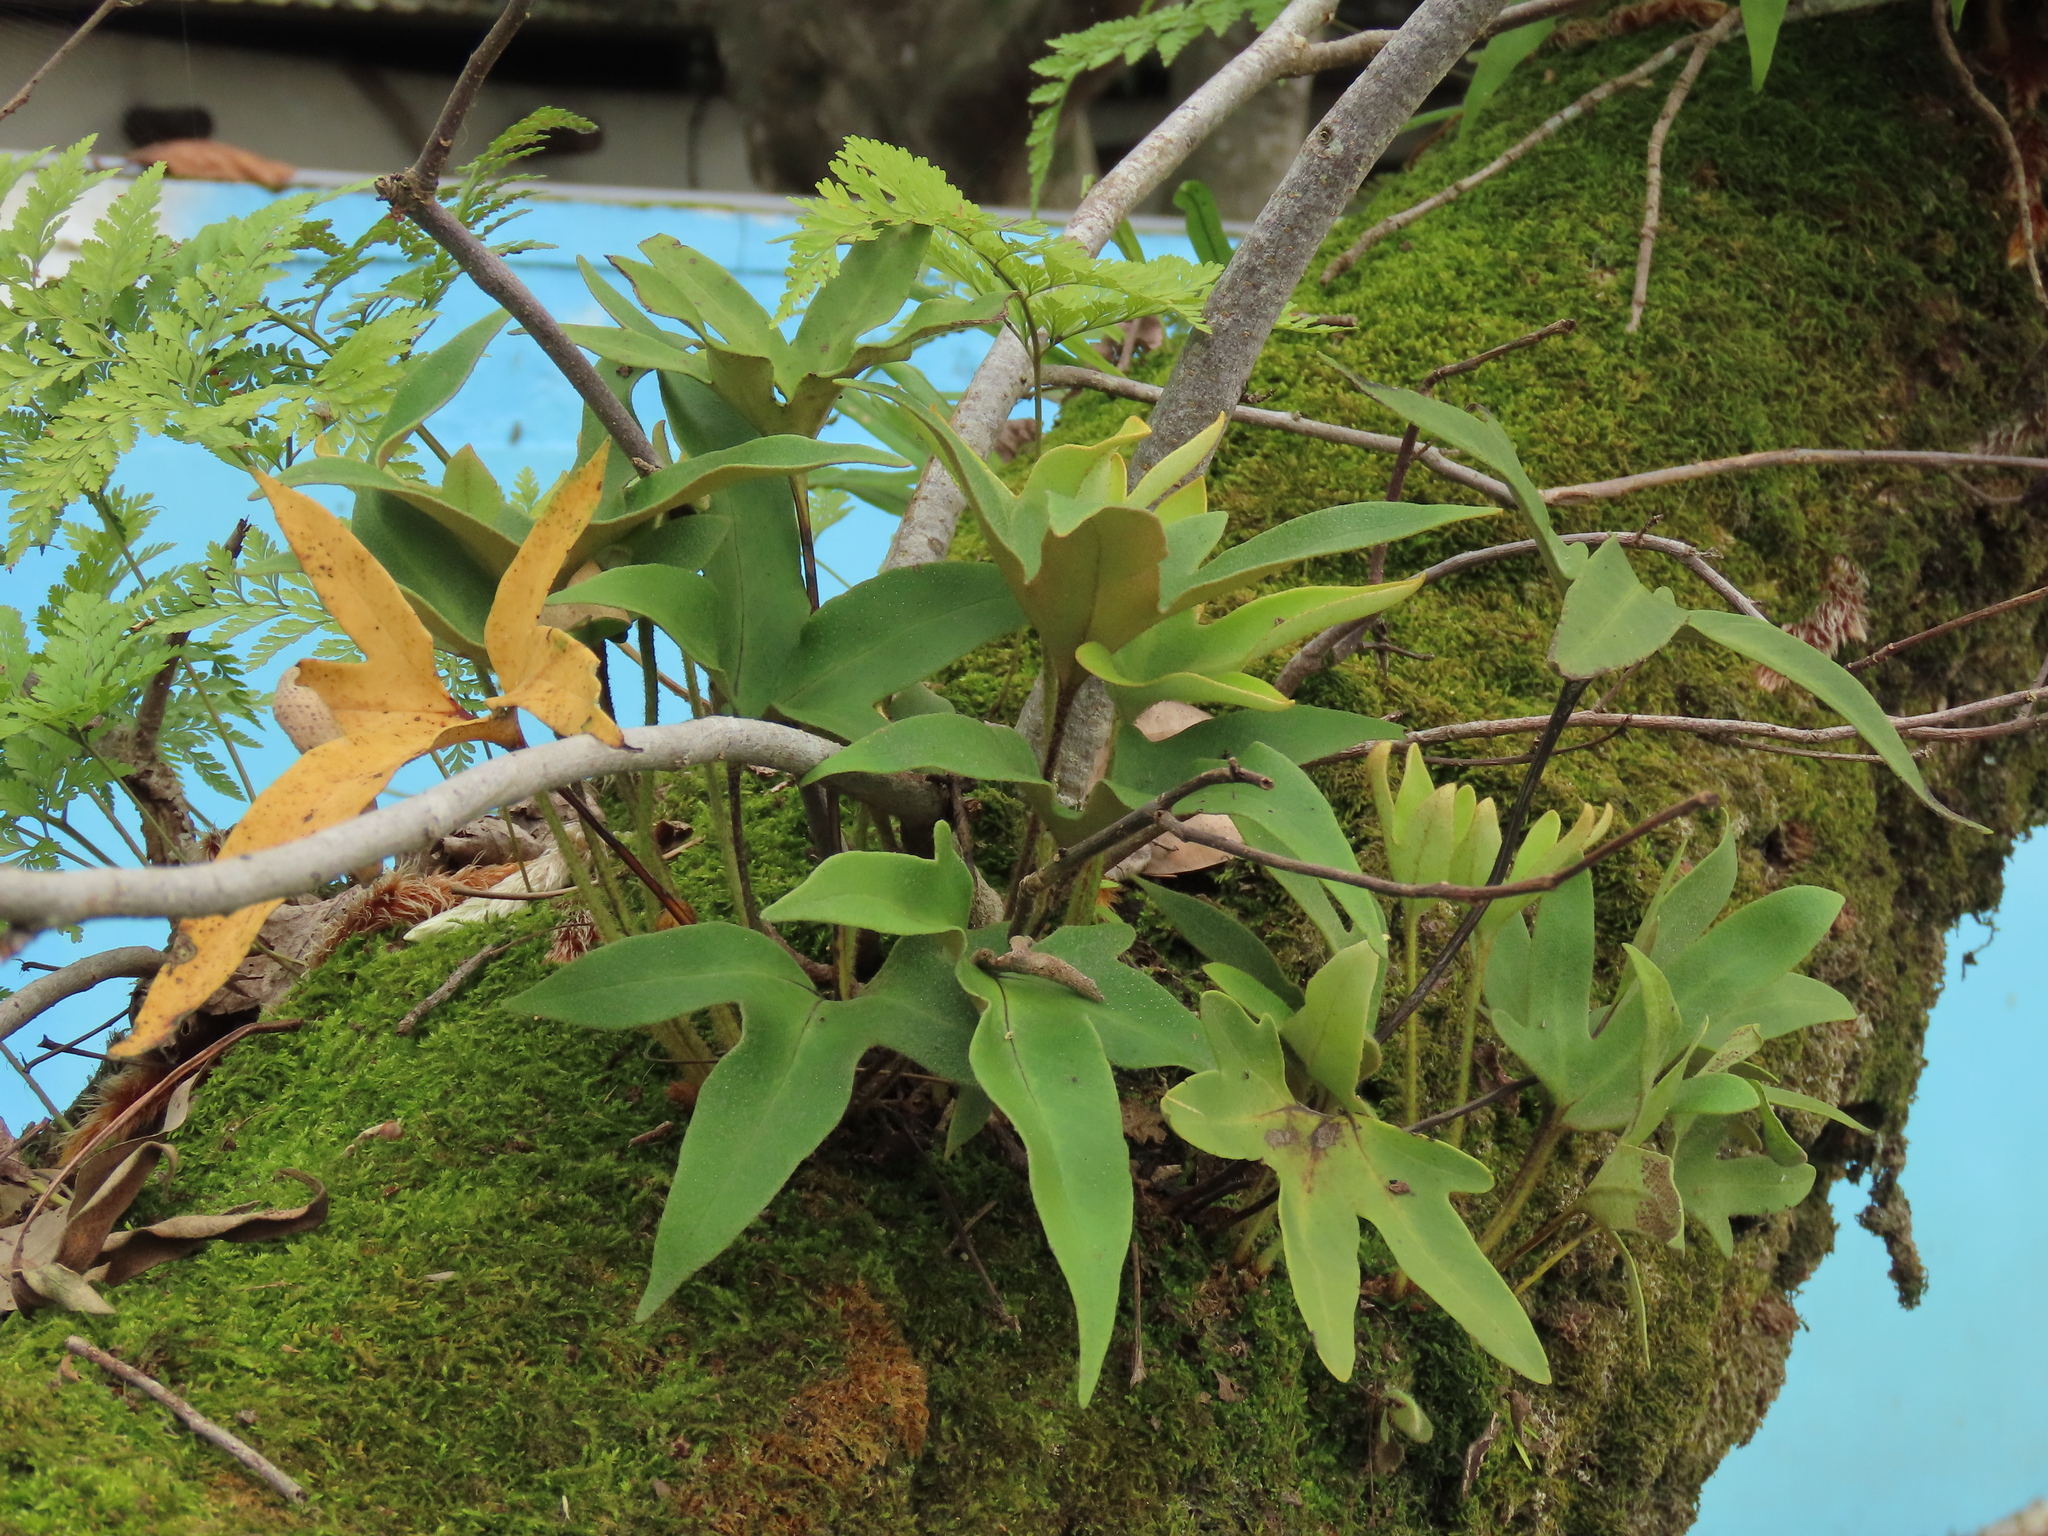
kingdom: Plantae
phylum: Tracheophyta
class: Polypodiopsida
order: Polypodiales
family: Polypodiaceae
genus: Pyrrosia
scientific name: Pyrrosia polydactyla
